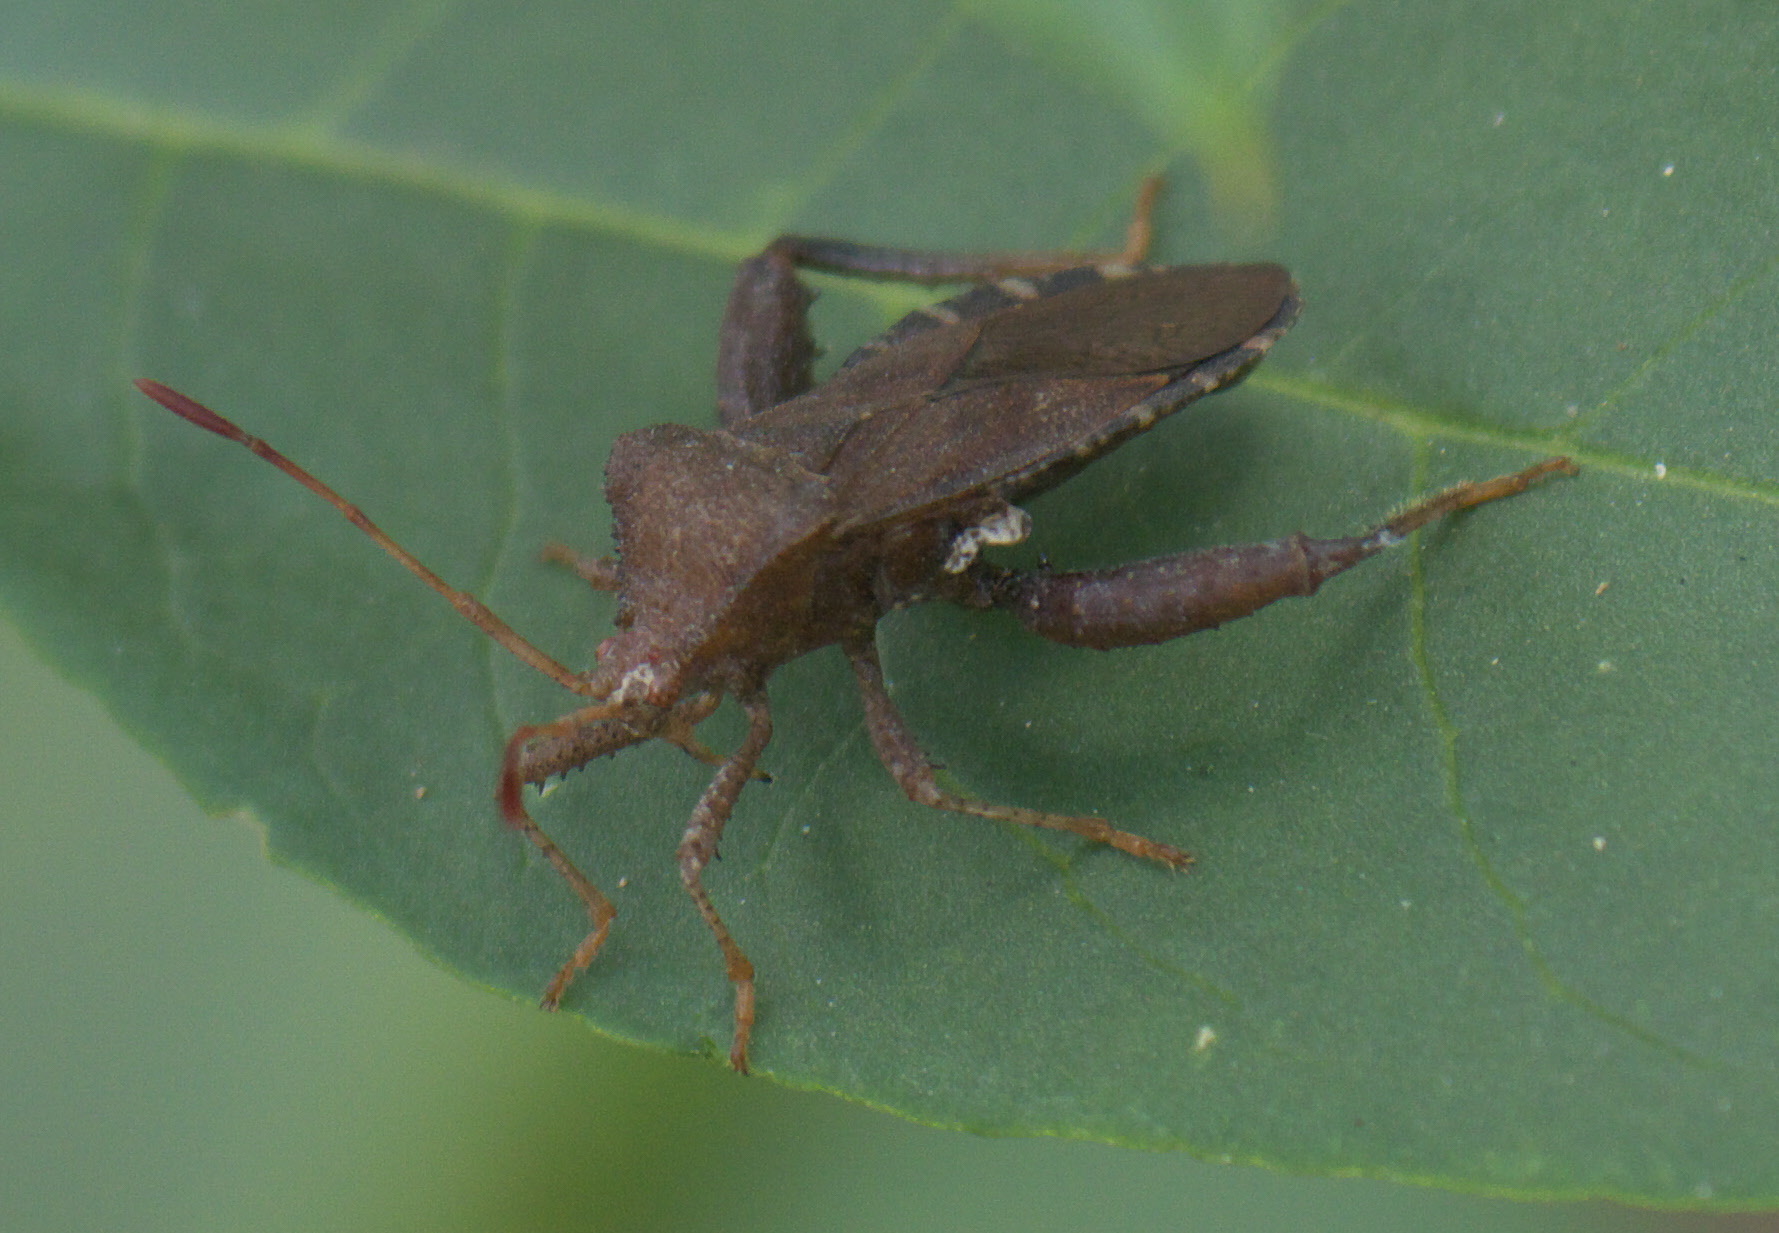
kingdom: Animalia
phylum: Arthropoda
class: Insecta
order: Hemiptera
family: Coreidae
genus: Euthochtha
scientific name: Euthochtha galeator
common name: Helmeted squash bug
